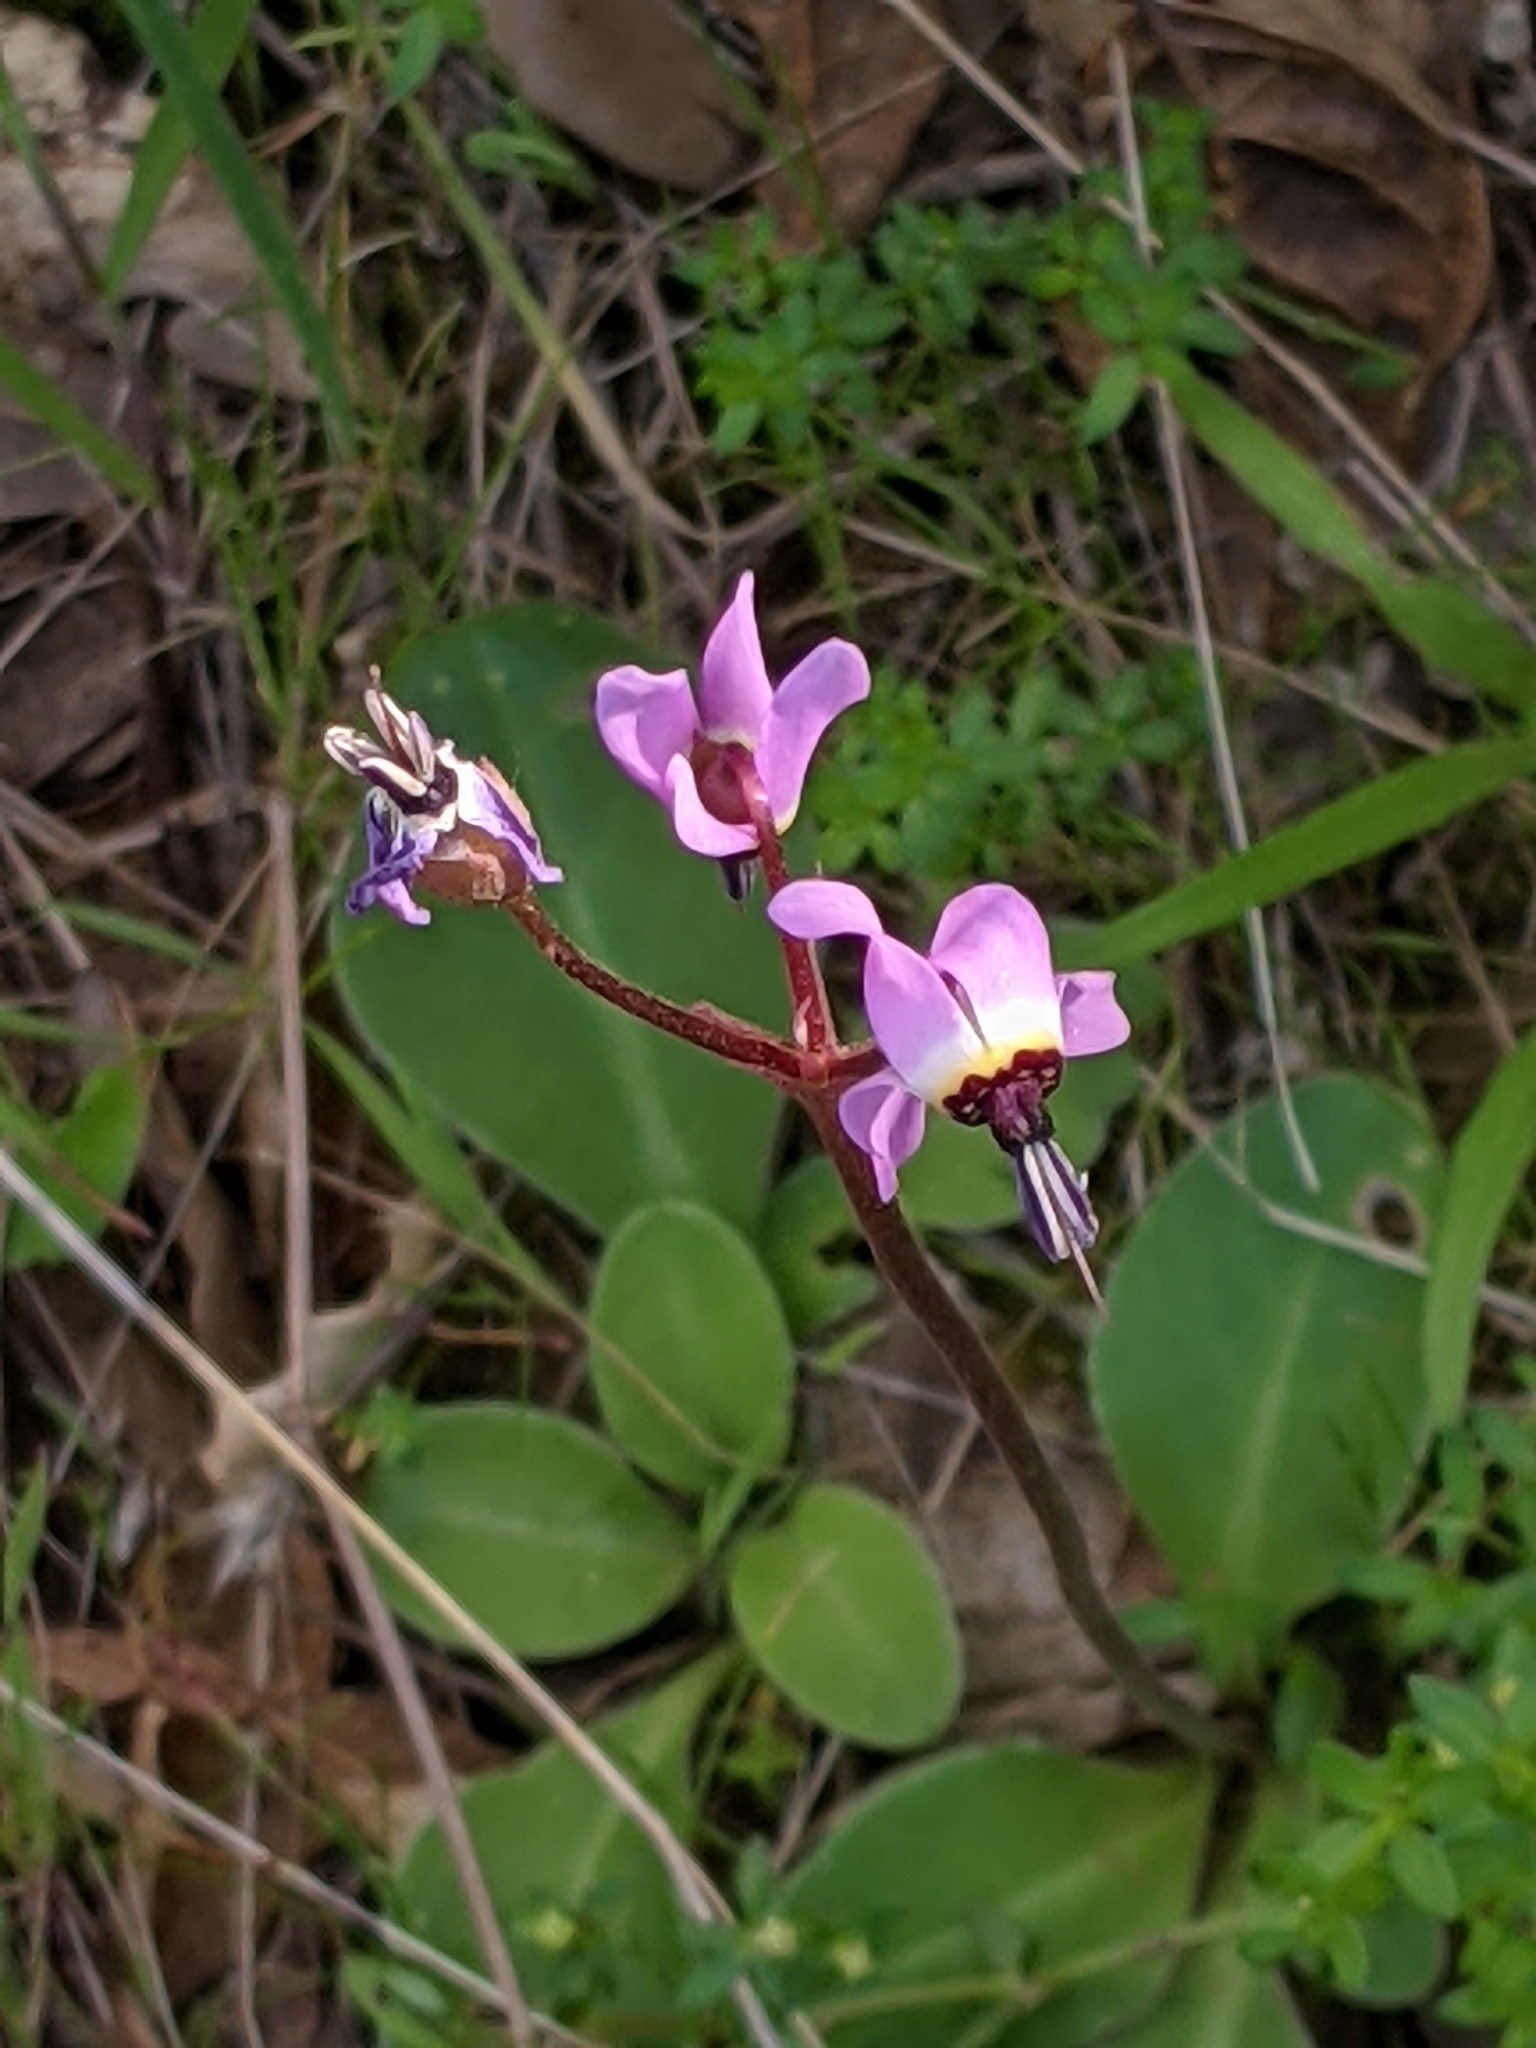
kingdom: Plantae
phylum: Tracheophyta
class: Magnoliopsida
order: Ericales
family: Primulaceae
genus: Dodecatheon
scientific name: Dodecatheon hendersonii
